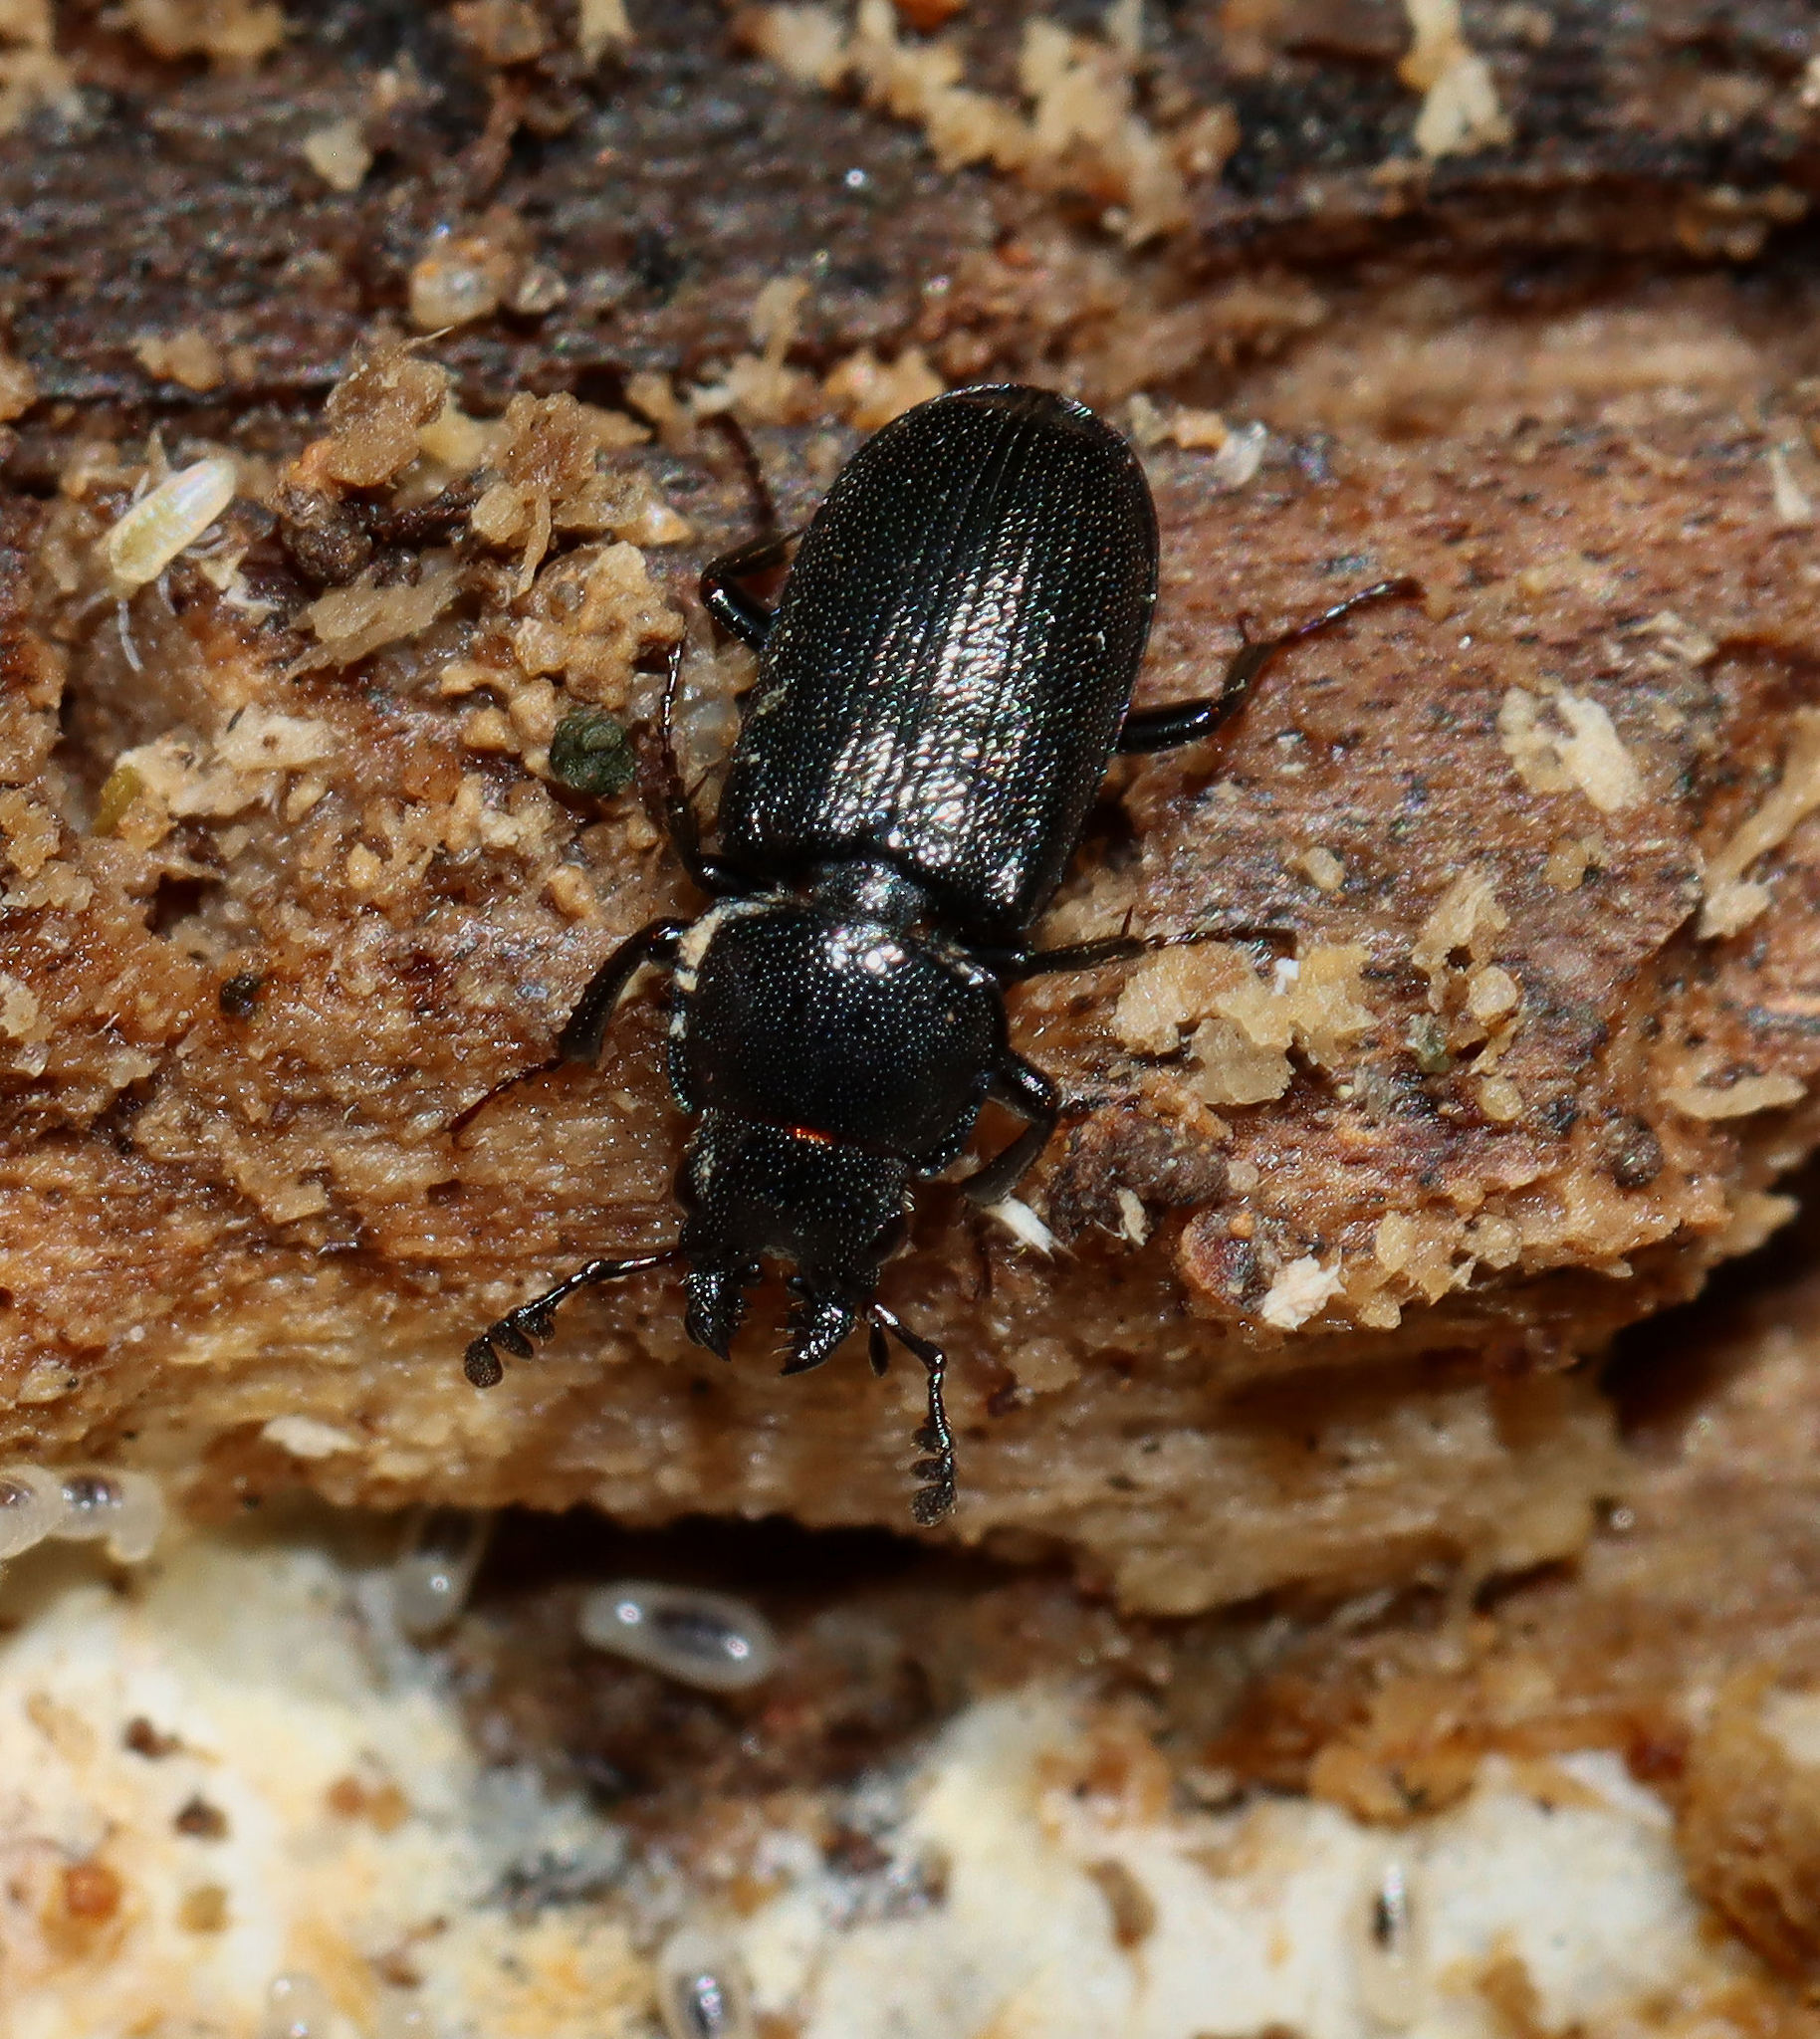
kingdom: Animalia
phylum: Arthropoda
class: Insecta
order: Coleoptera
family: Lucanidae
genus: Platycerus
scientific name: Platycerus quercus
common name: Oak stag beetle
